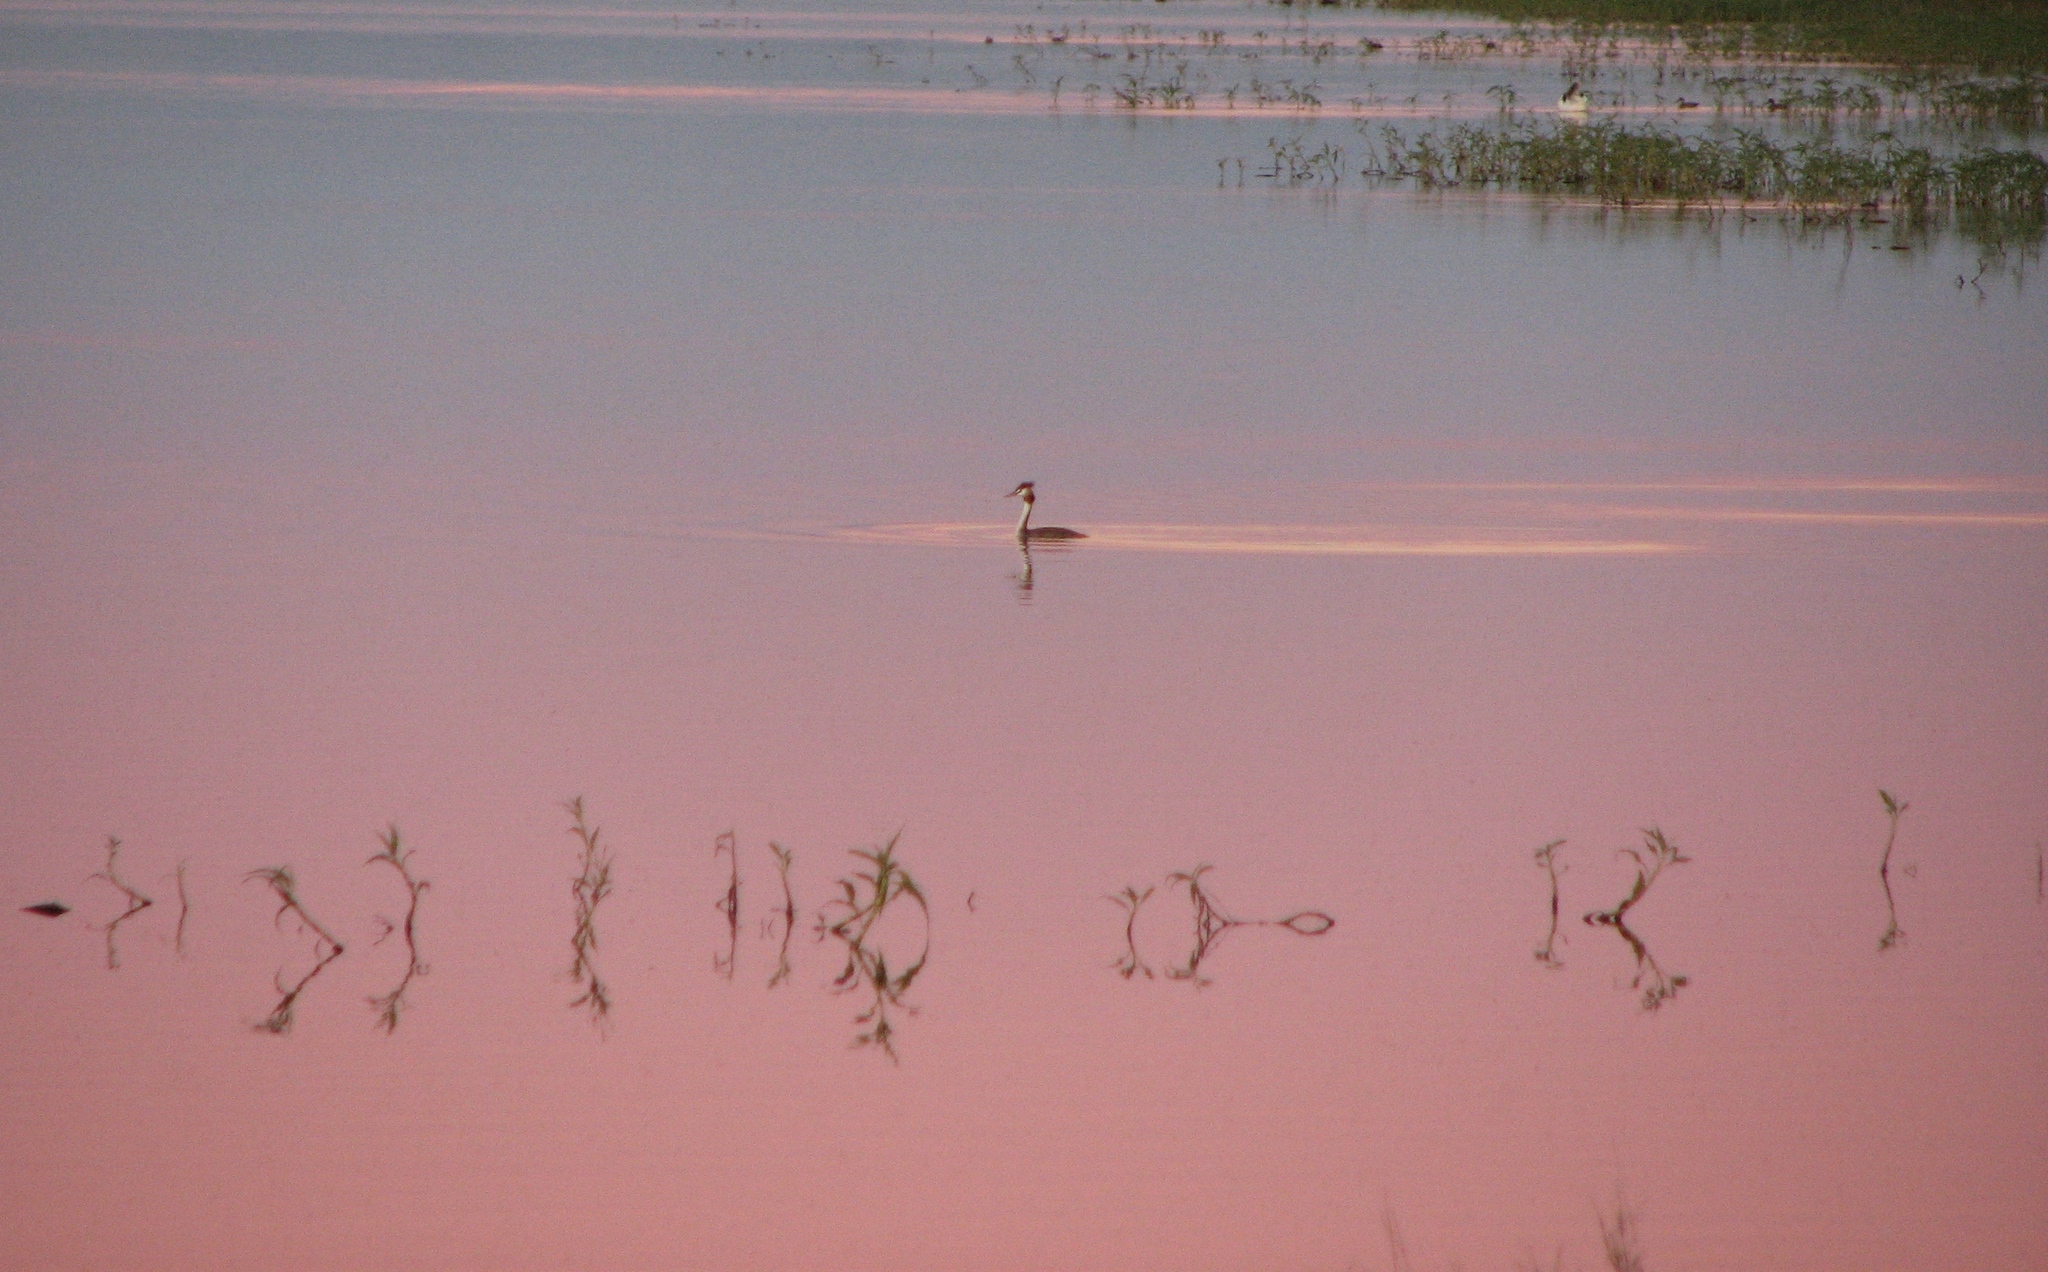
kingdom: Animalia
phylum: Chordata
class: Aves
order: Podicipediformes
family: Podicipedidae
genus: Podiceps
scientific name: Podiceps cristatus
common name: Great crested grebe
